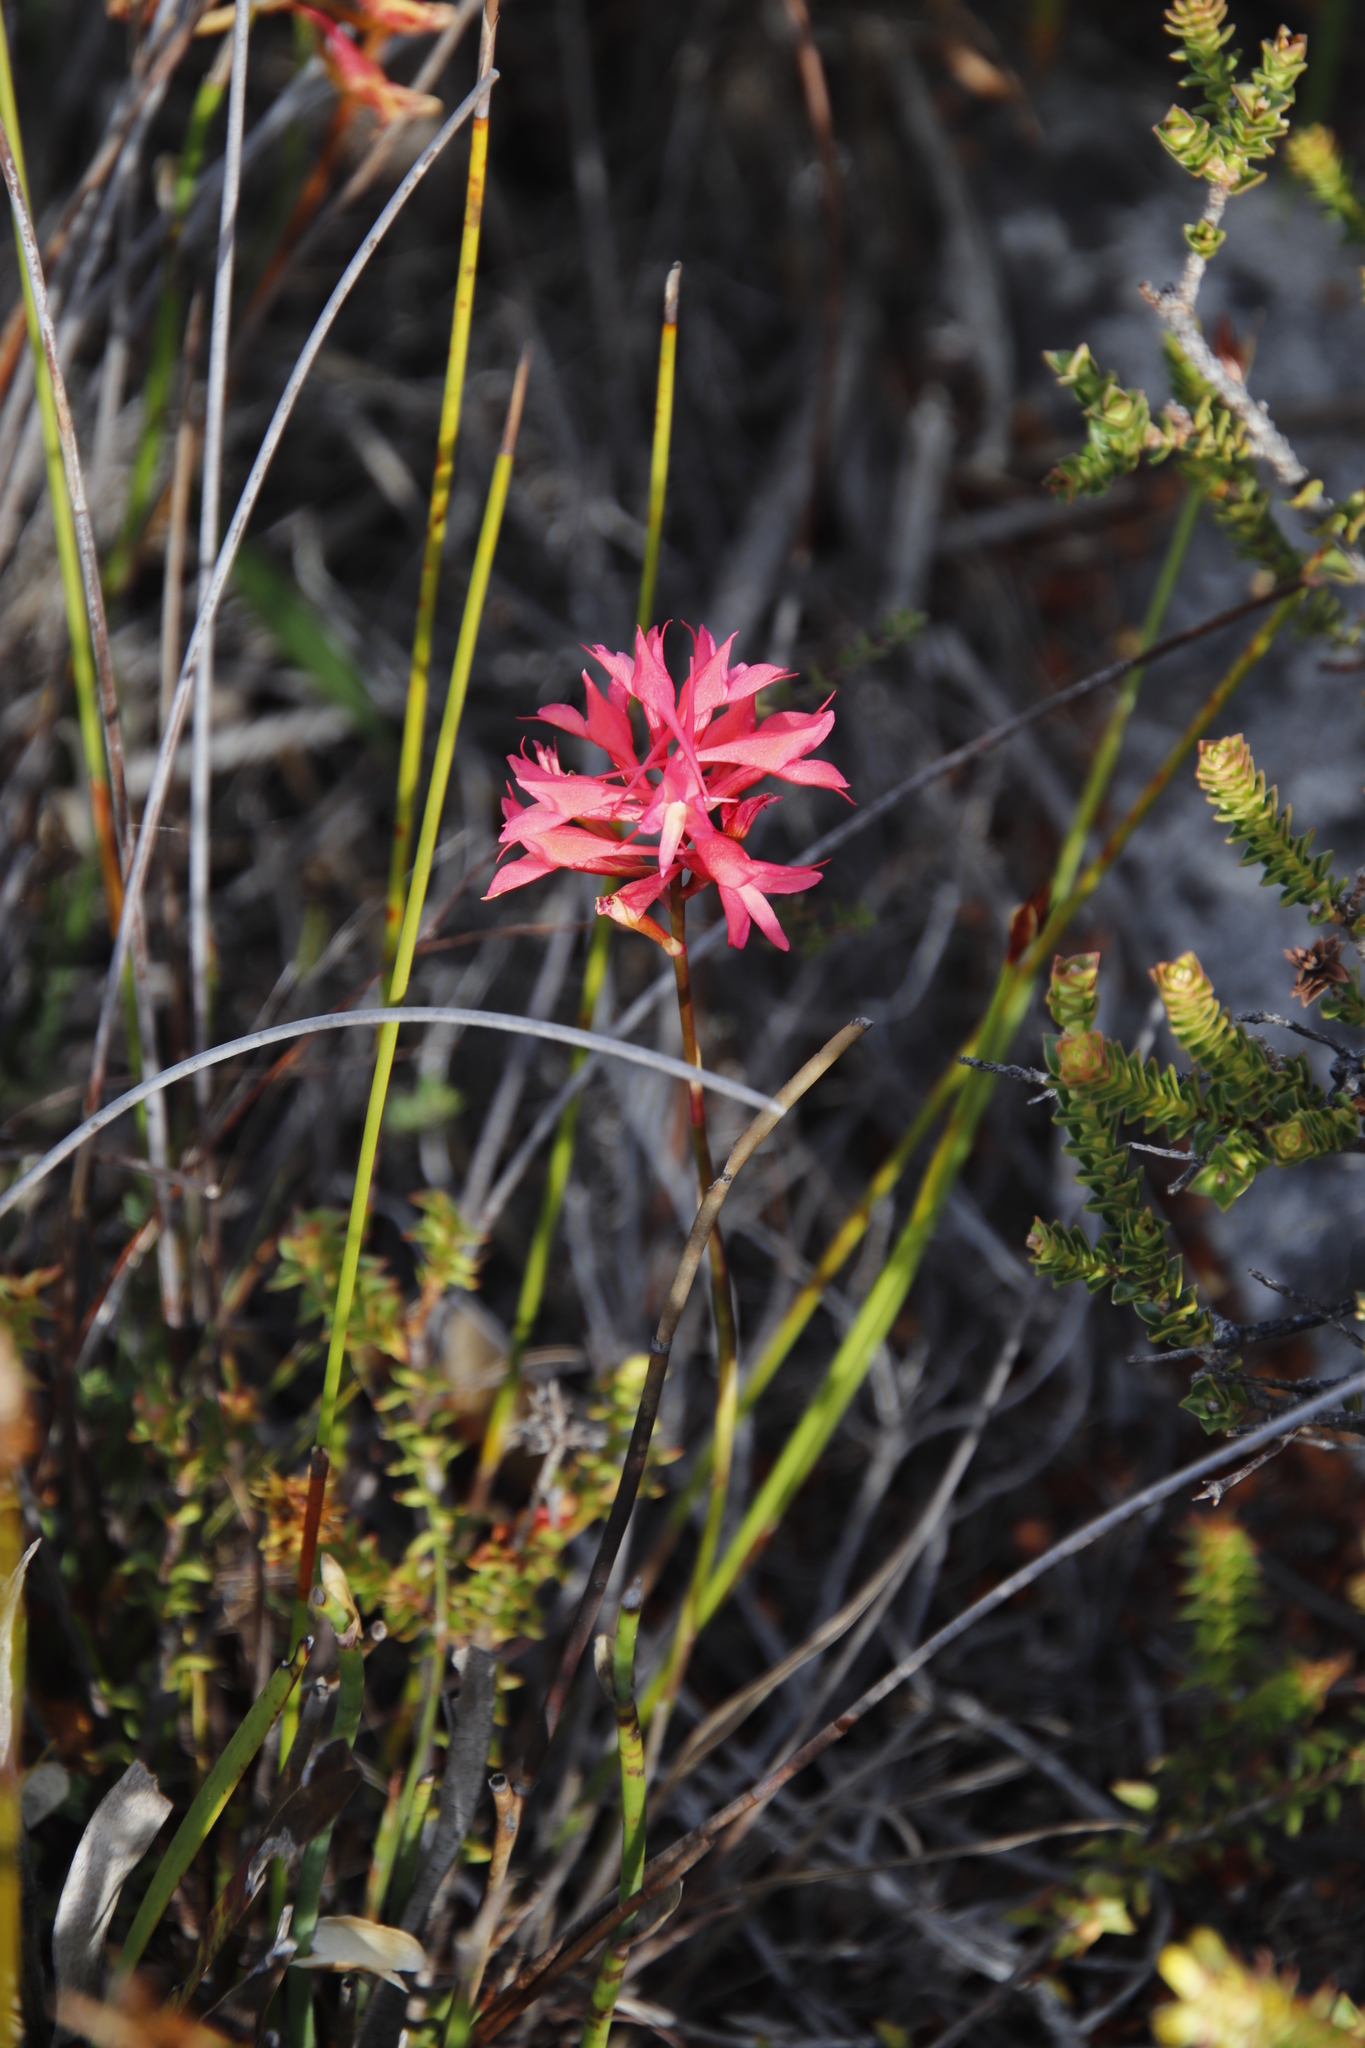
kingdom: Plantae
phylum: Tracheophyta
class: Liliopsida
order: Asparagales
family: Orchidaceae
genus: Disa
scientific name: Disa ferruginea
